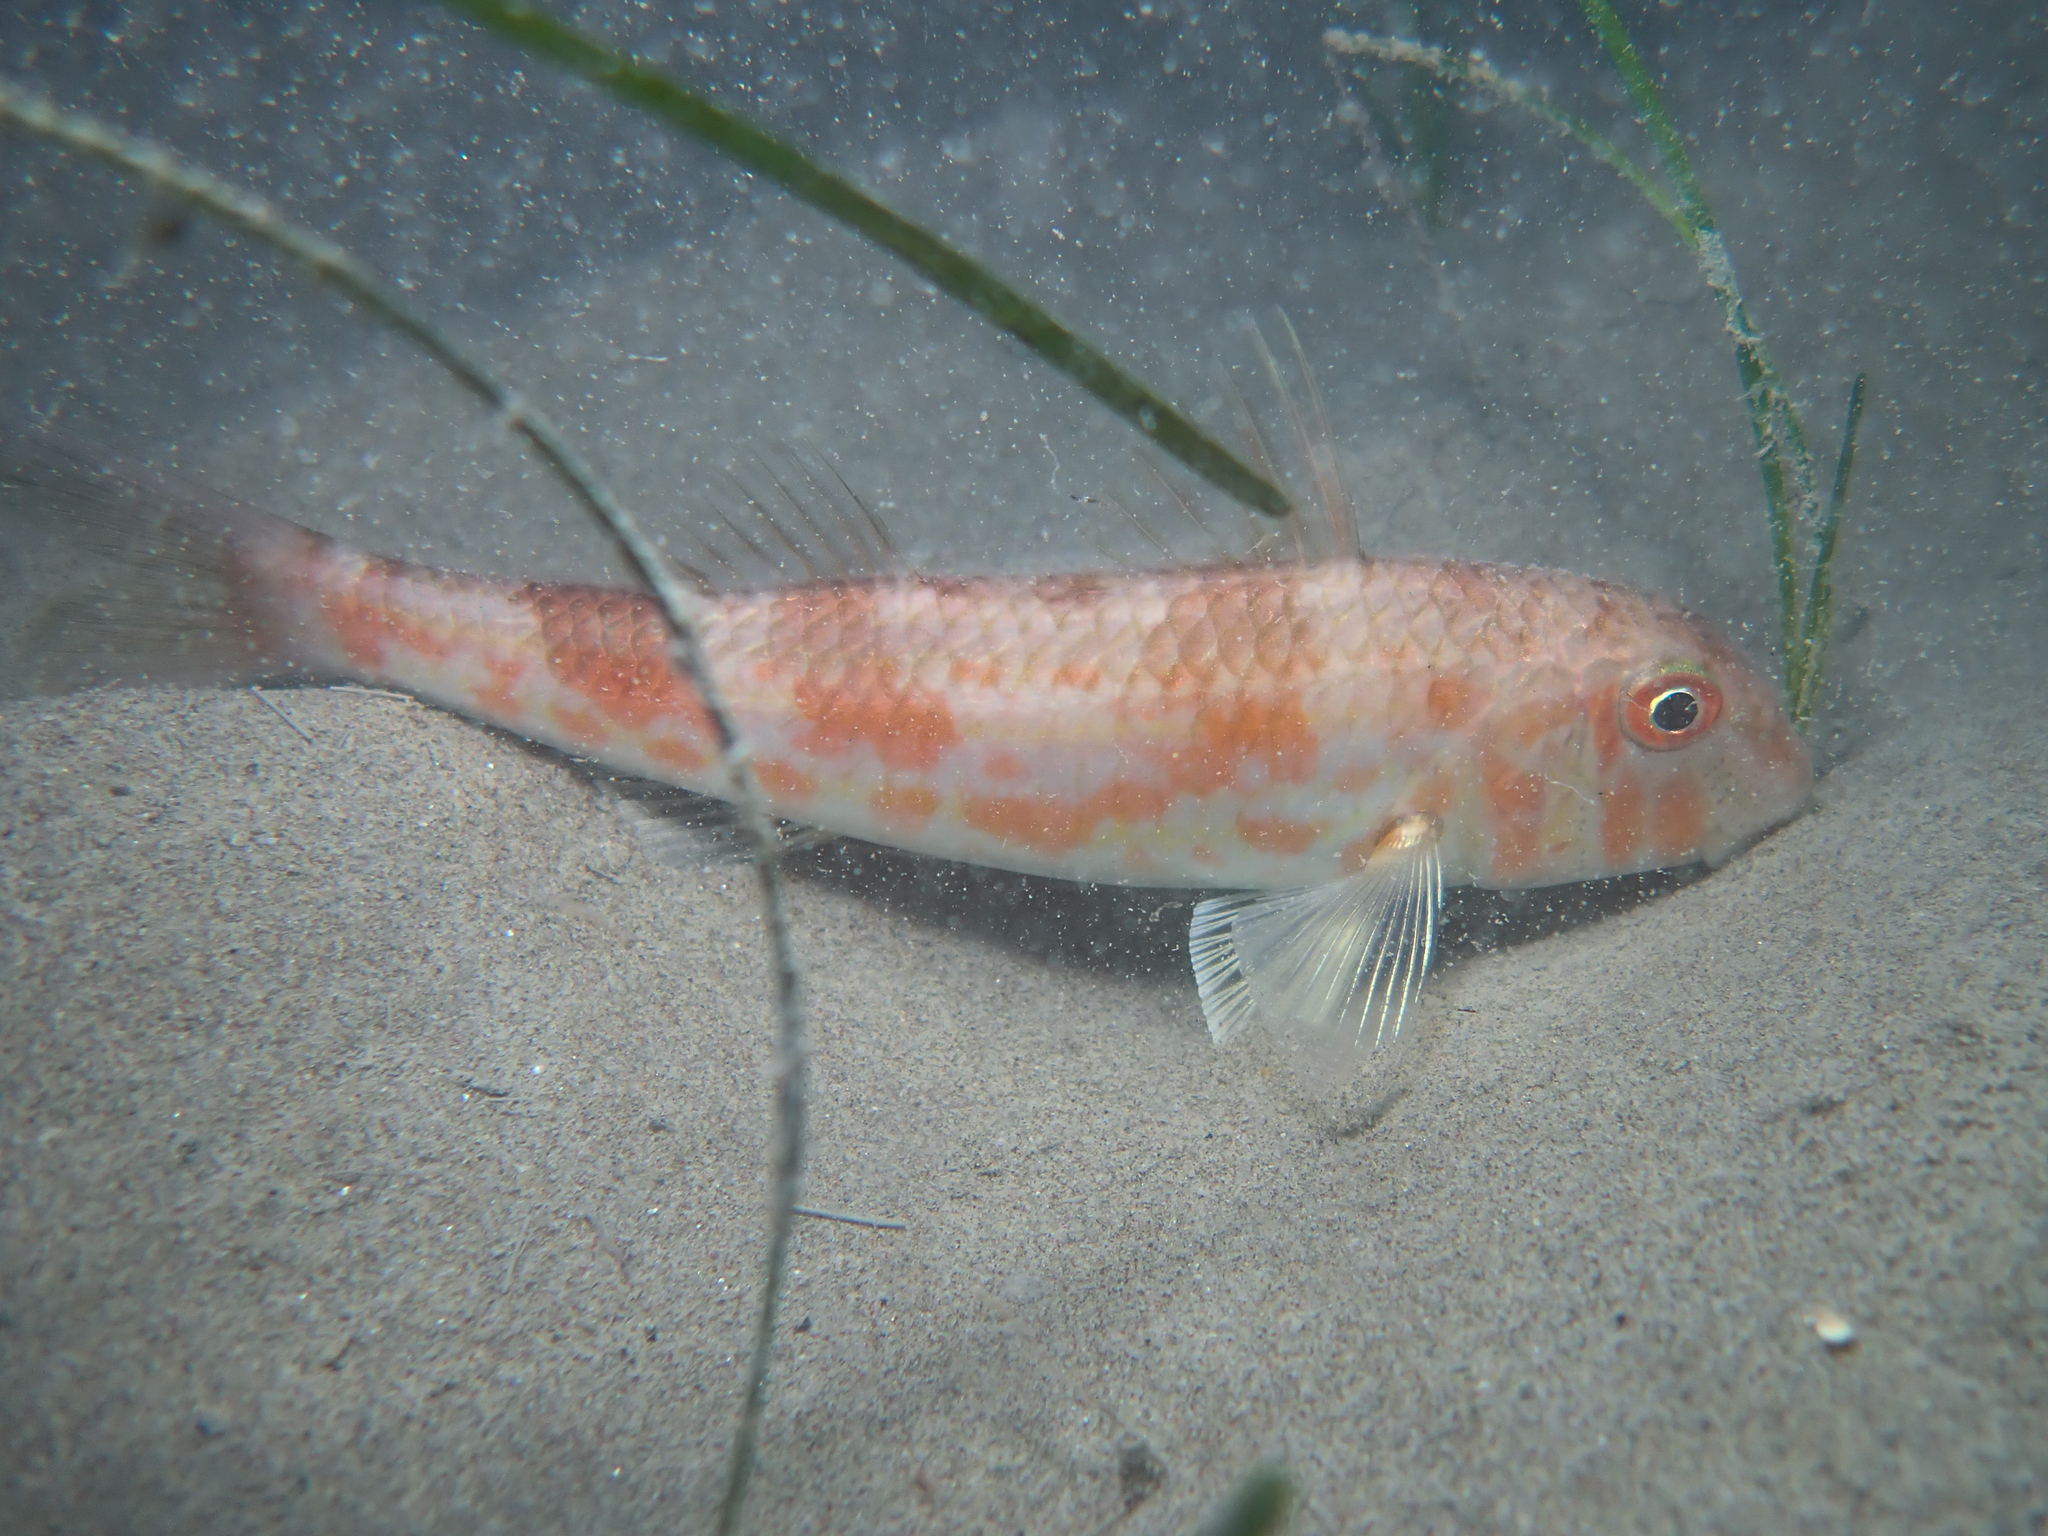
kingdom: Animalia
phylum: Chordata
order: Perciformes
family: Mullidae
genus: Mullus
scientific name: Mullus barbatus
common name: Blunt-snouted mullet
